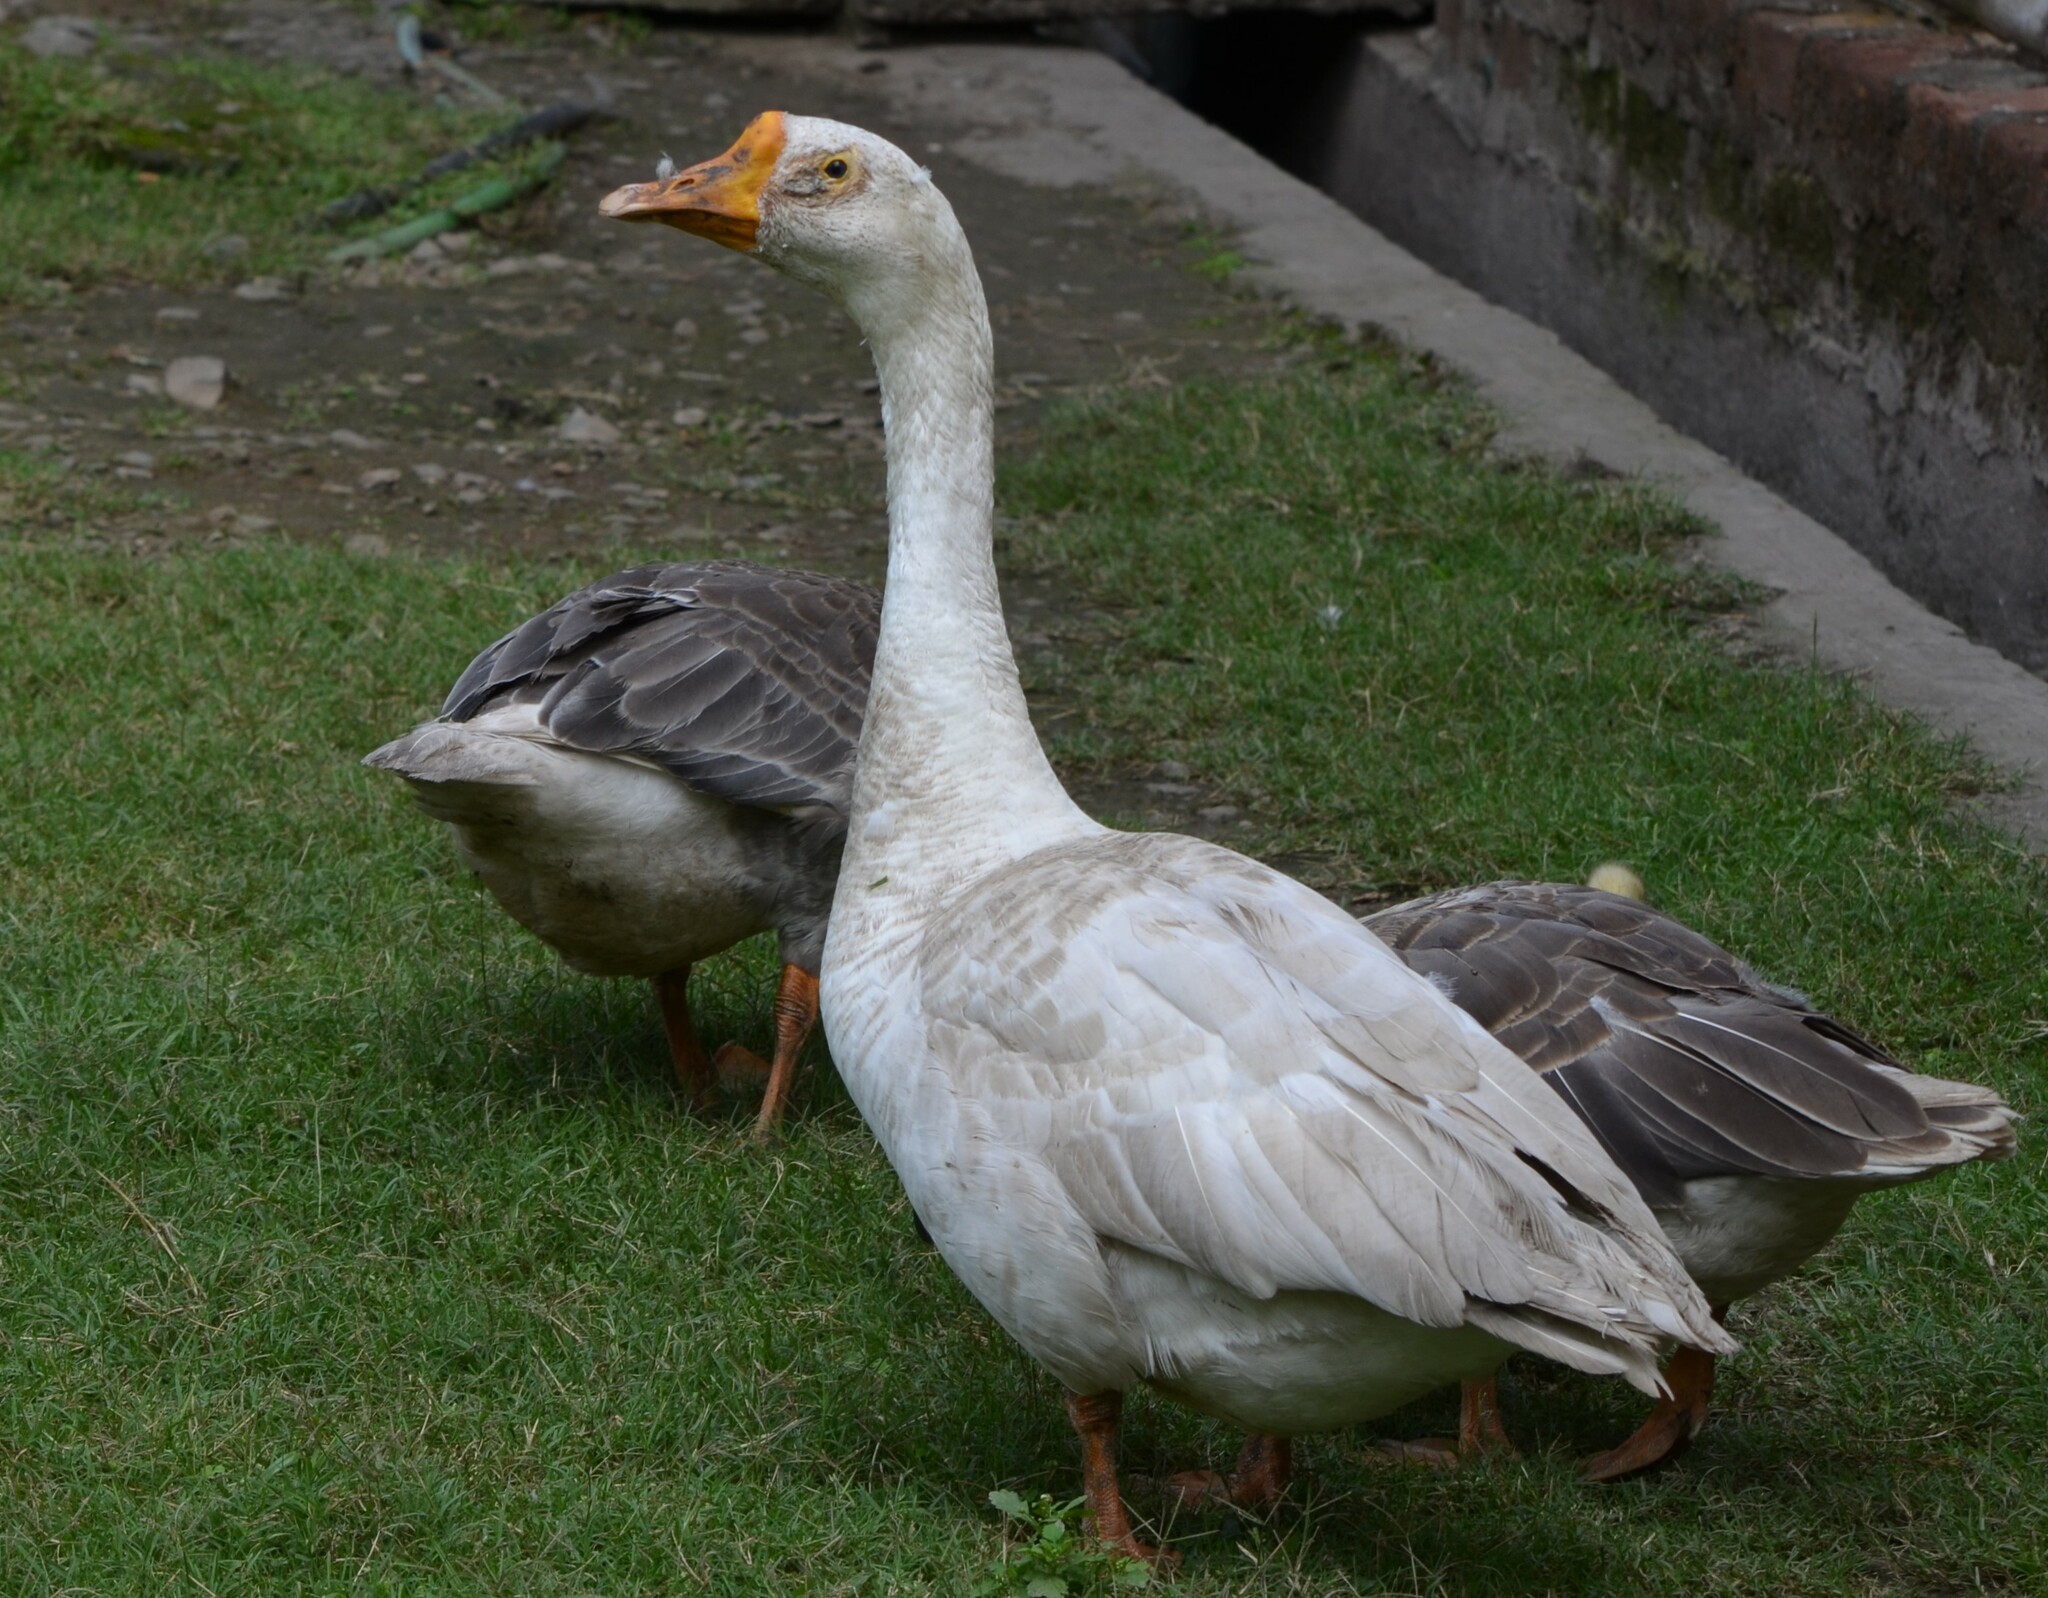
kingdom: Animalia
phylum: Chordata
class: Aves
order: Anseriformes
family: Anatidae
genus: Anser
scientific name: Anser cygnoides
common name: Swan goose
